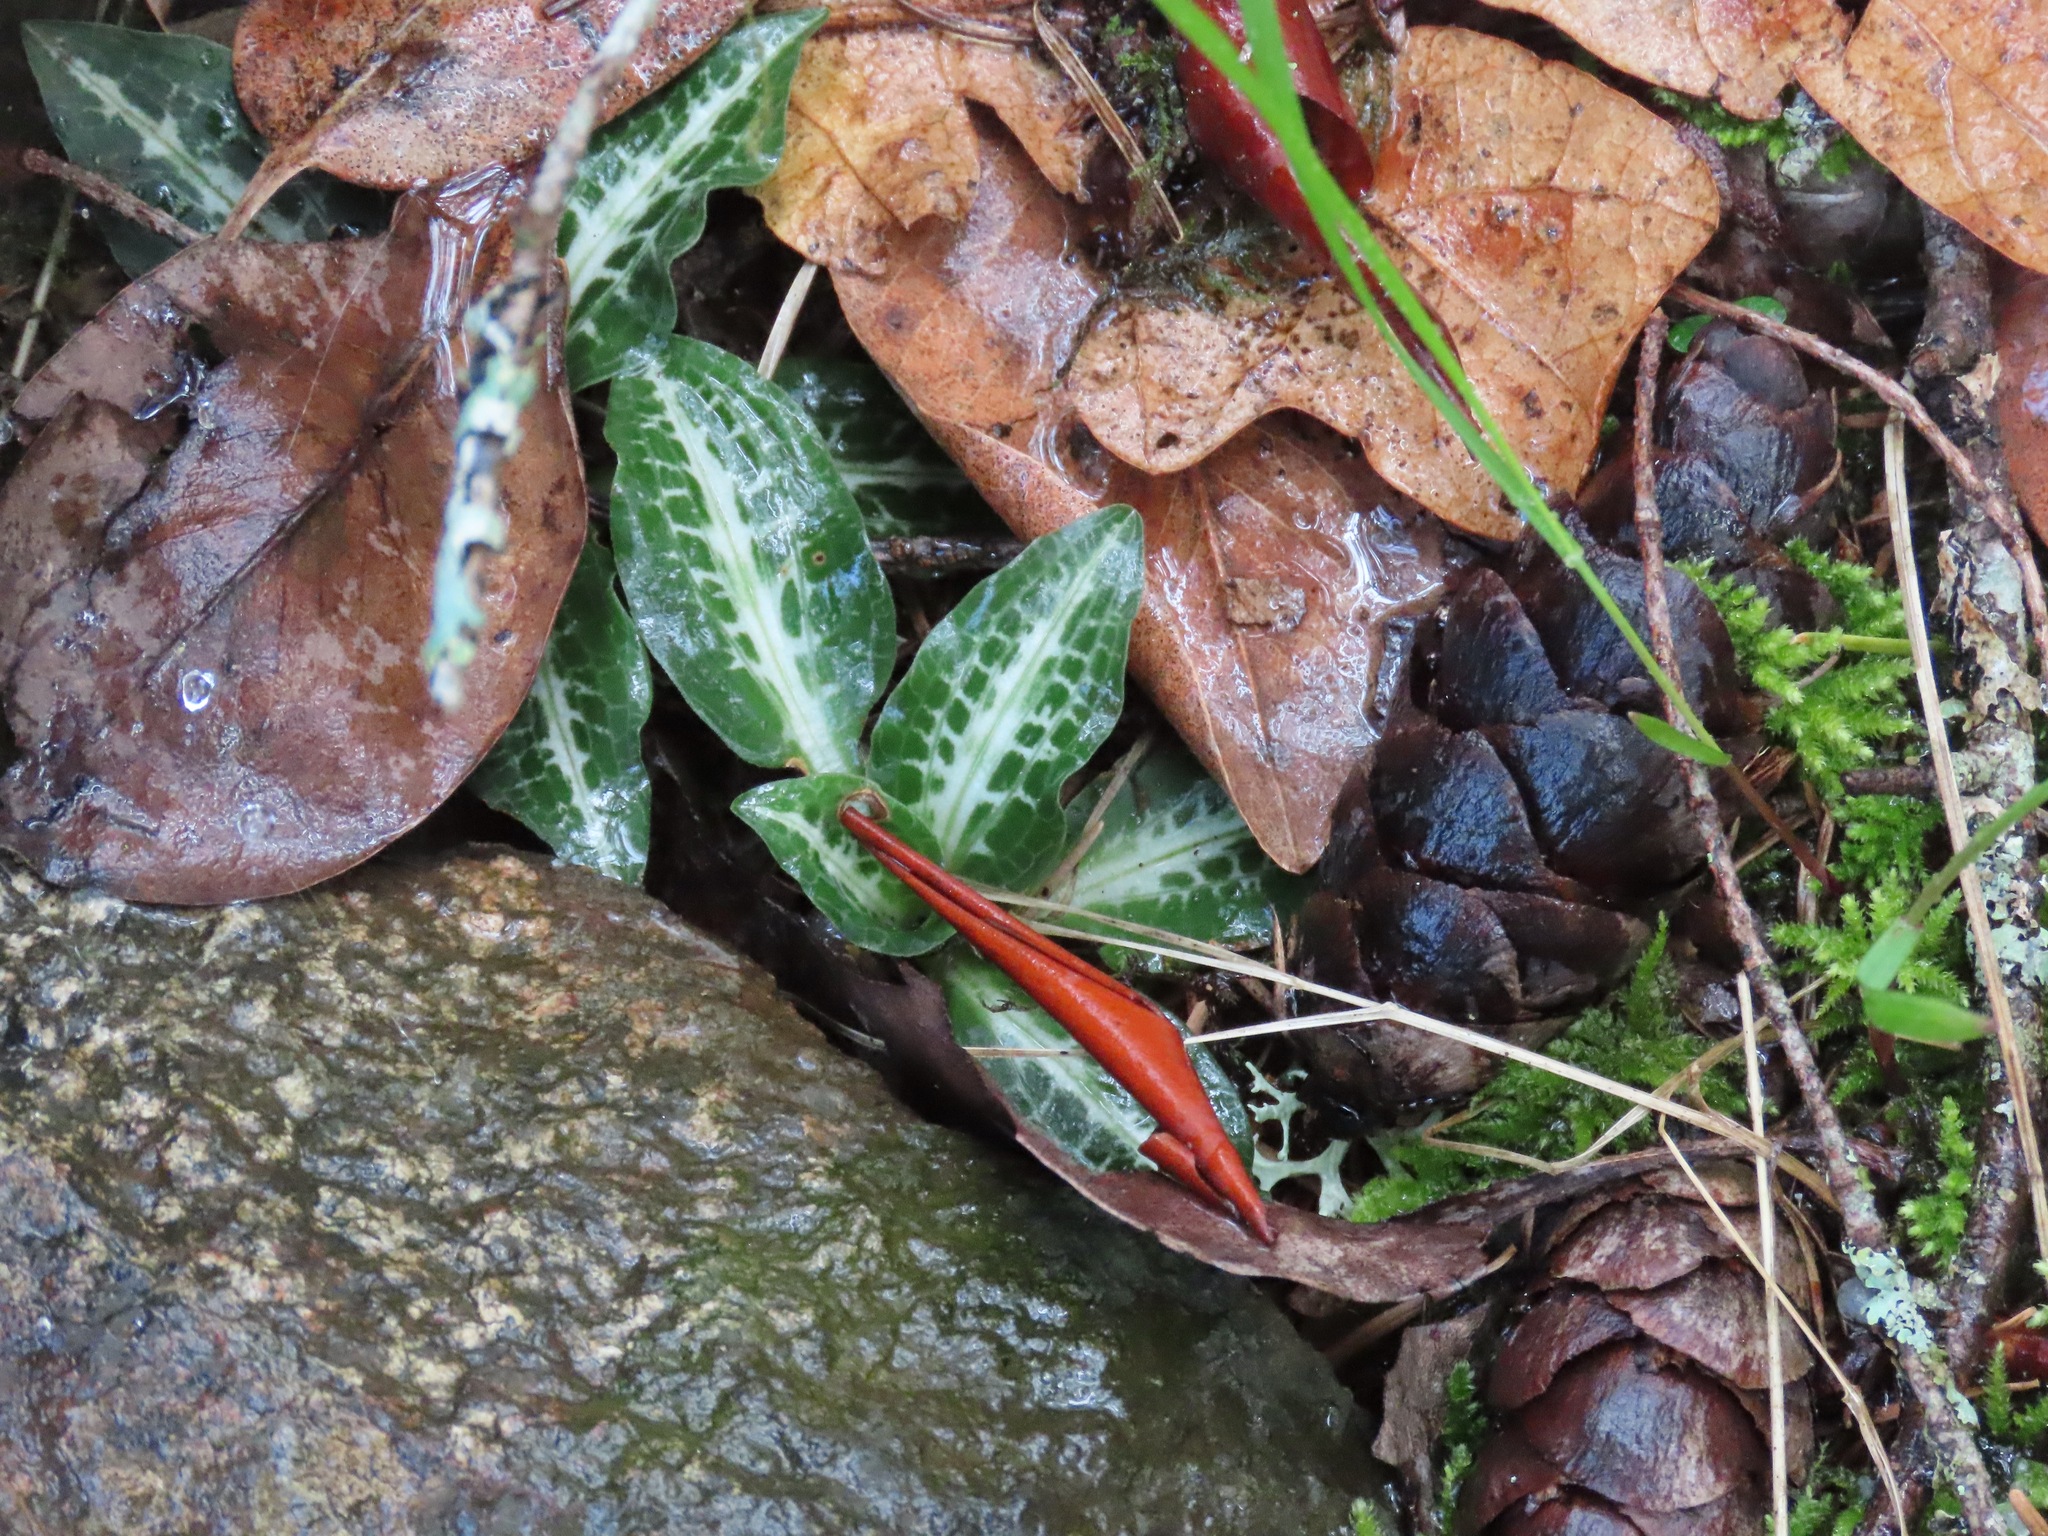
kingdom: Plantae
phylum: Tracheophyta
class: Liliopsida
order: Asparagales
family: Orchidaceae
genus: Goodyera
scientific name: Goodyera oblongifolia
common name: Giant rattlesnake-plantain
